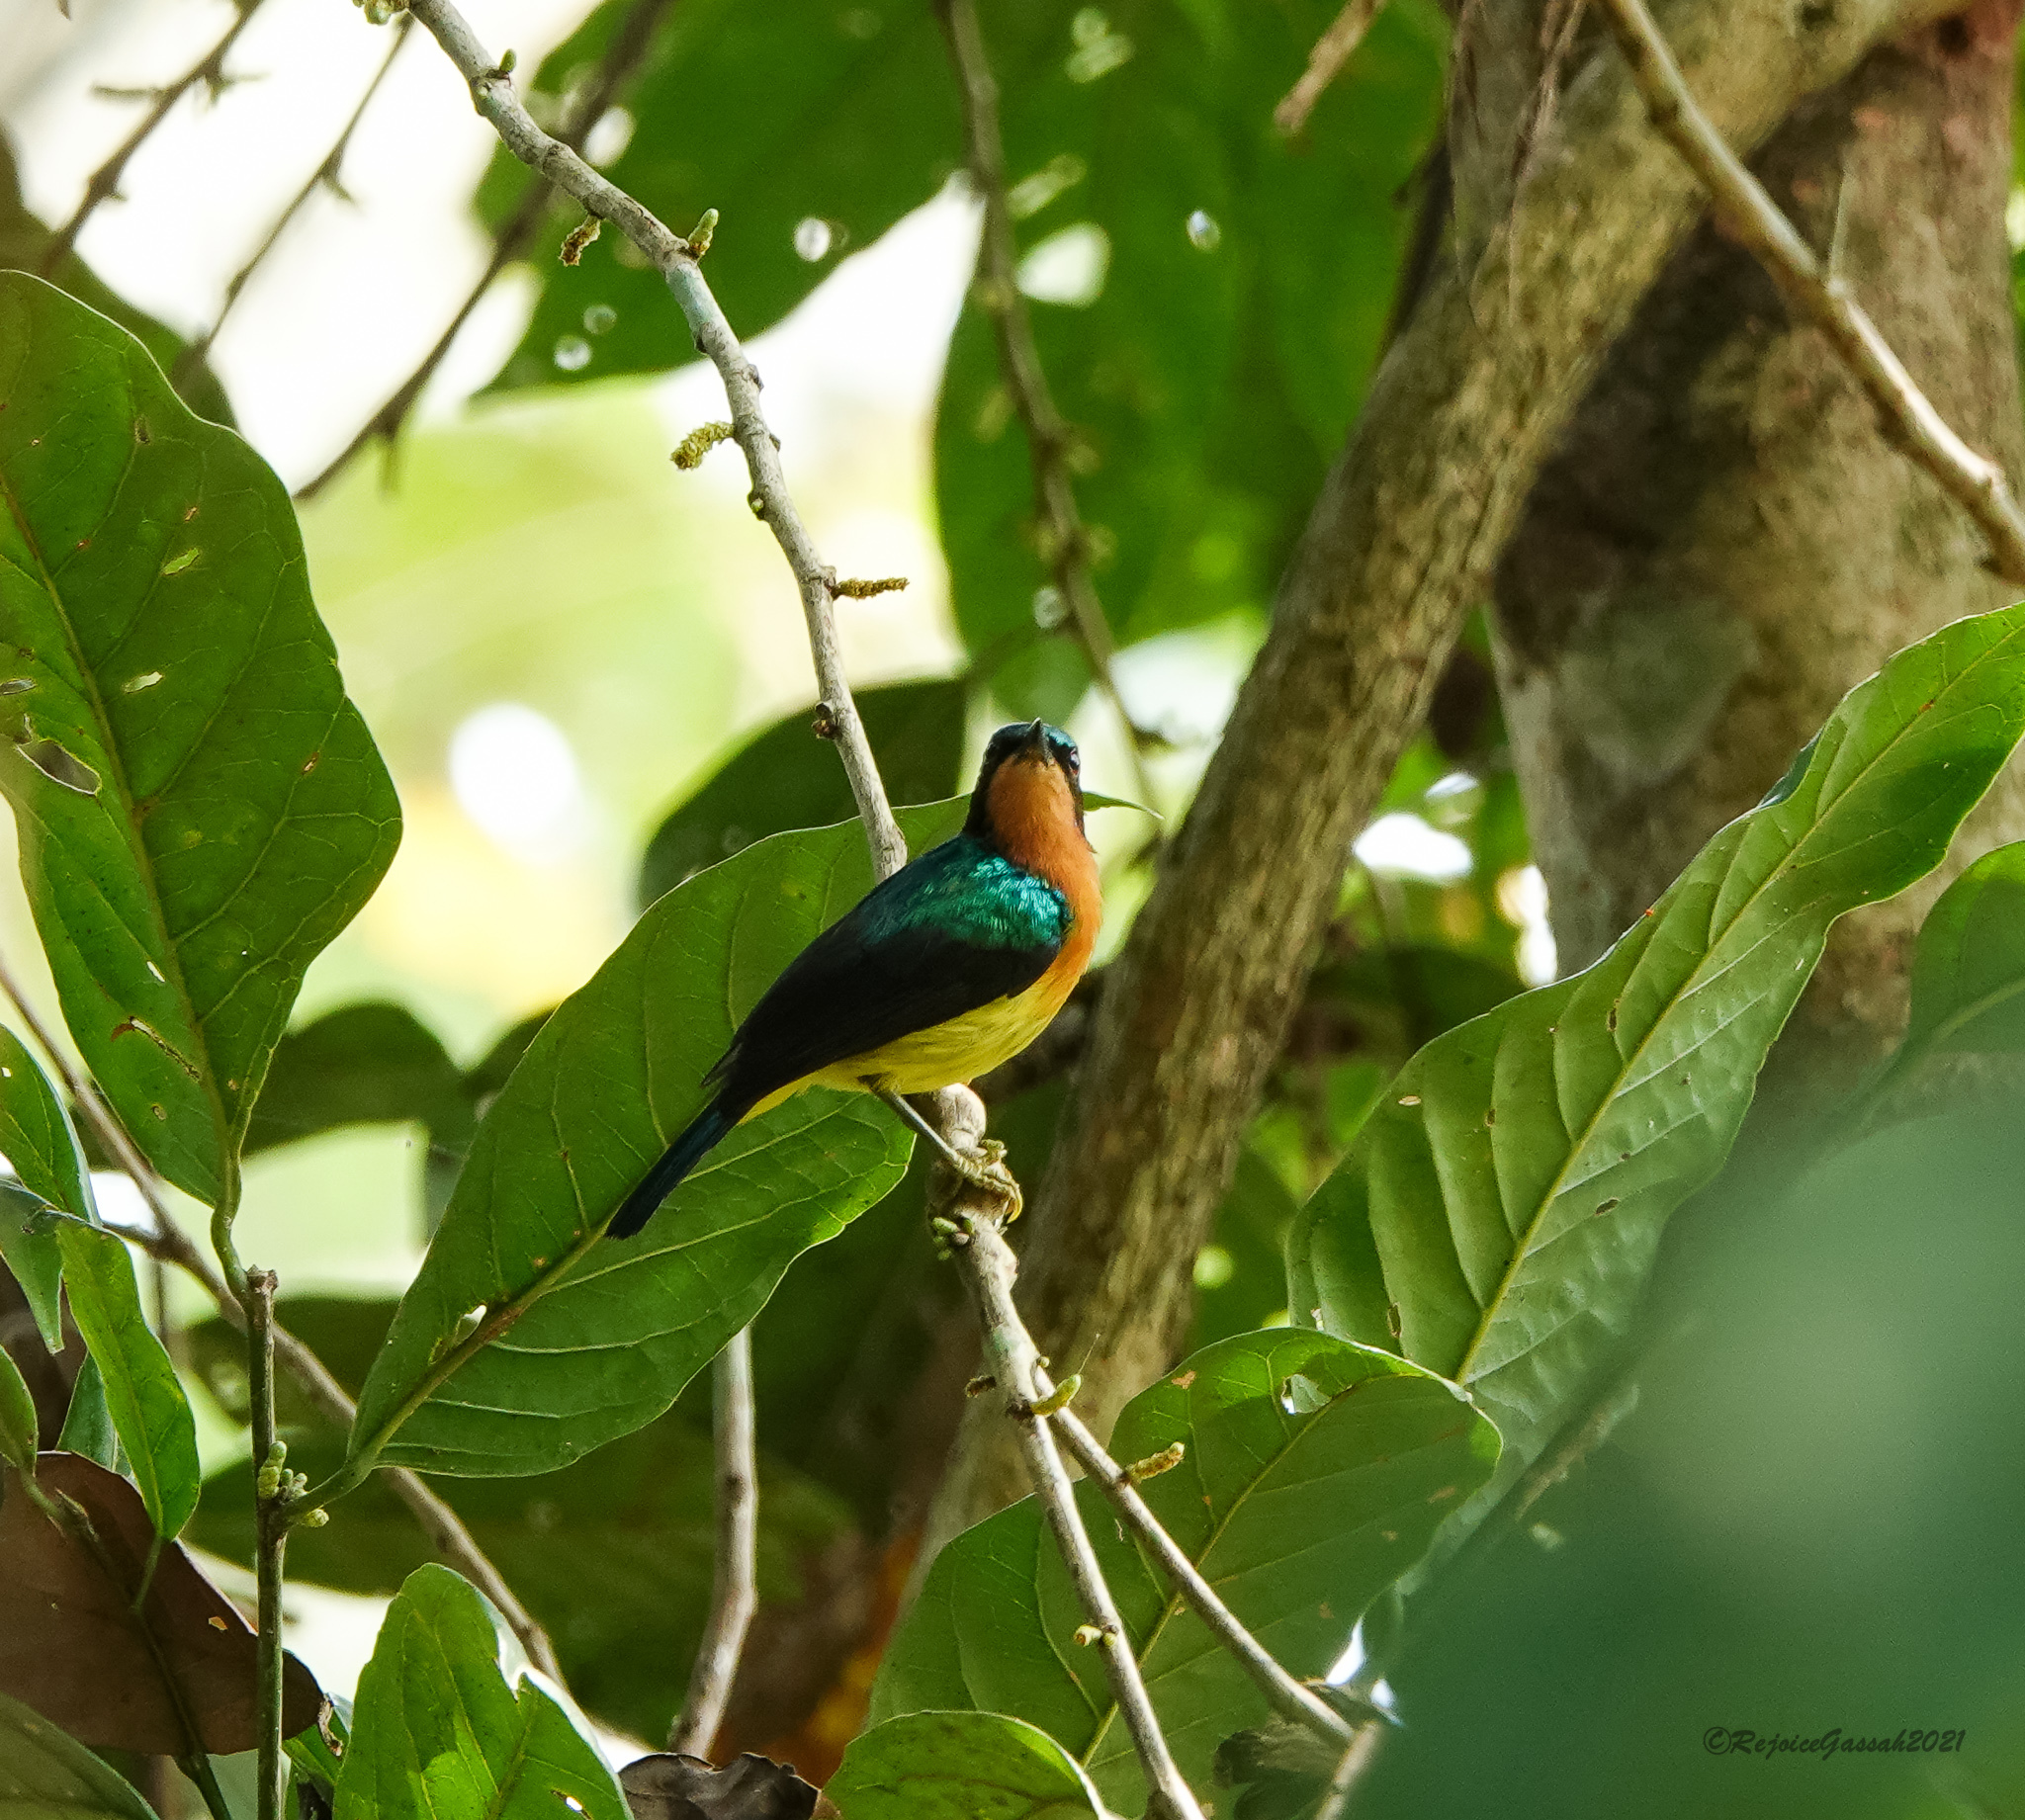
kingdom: Animalia
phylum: Chordata
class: Aves
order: Passeriformes
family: Nectariniidae
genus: Chalcoparia
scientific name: Chalcoparia singalensis
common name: Ruby-cheeked sunbird
